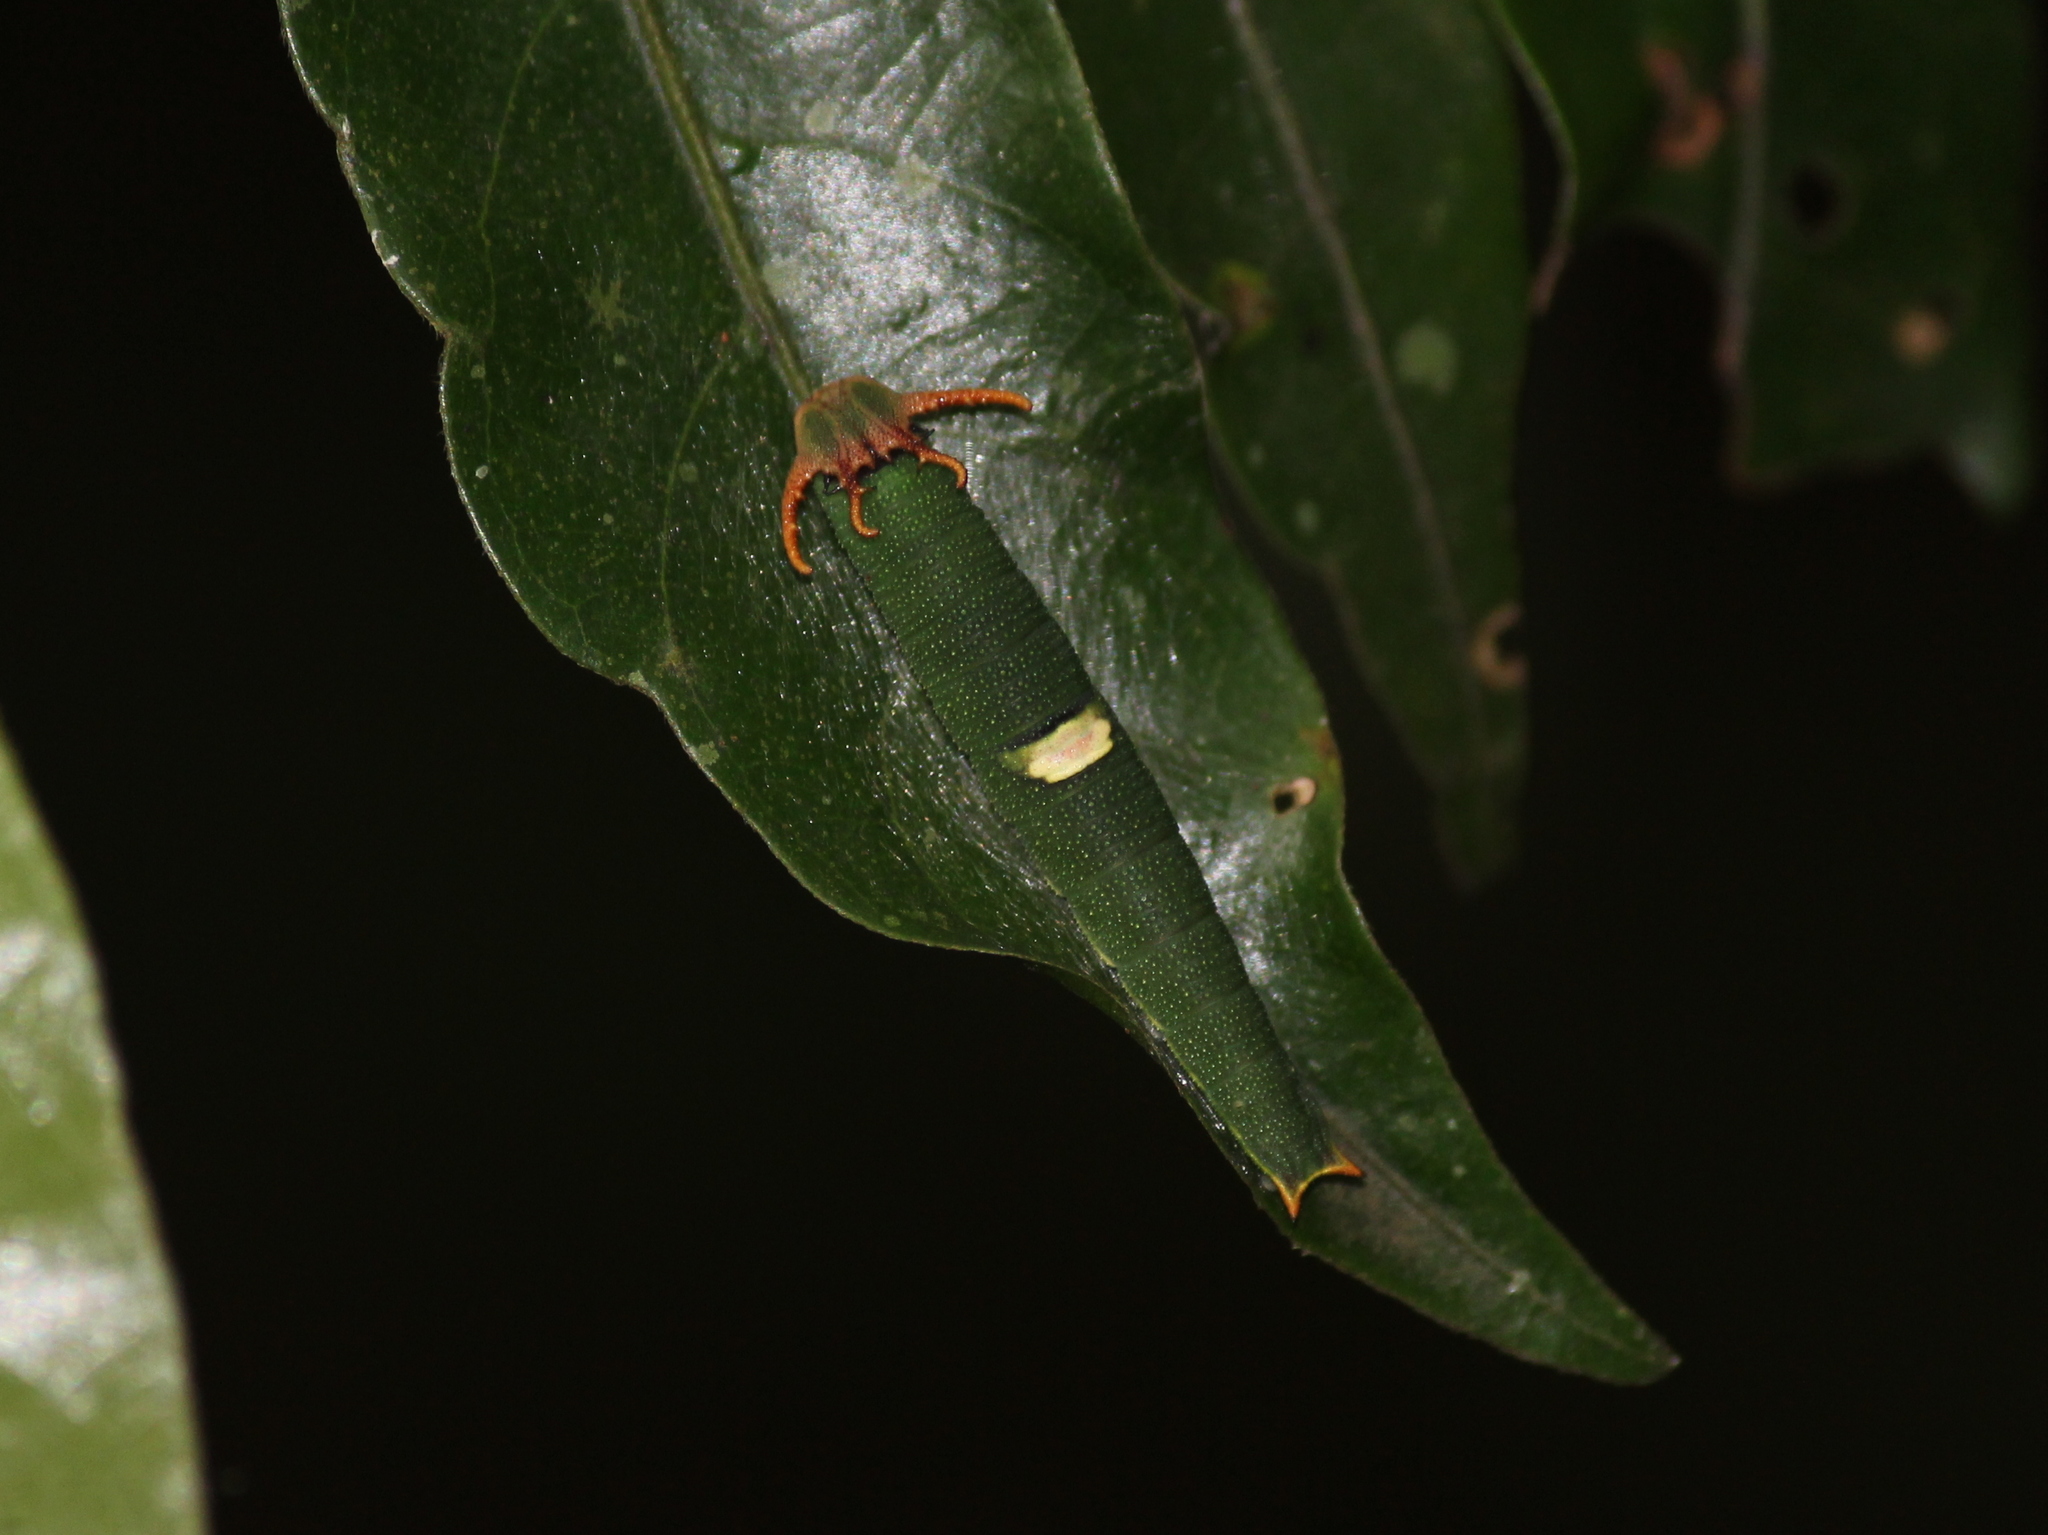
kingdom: Animalia
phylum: Arthropoda
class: Insecta
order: Lepidoptera
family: Nymphalidae
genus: Polyura
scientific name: Polyura schreiber
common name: Blue nawab
